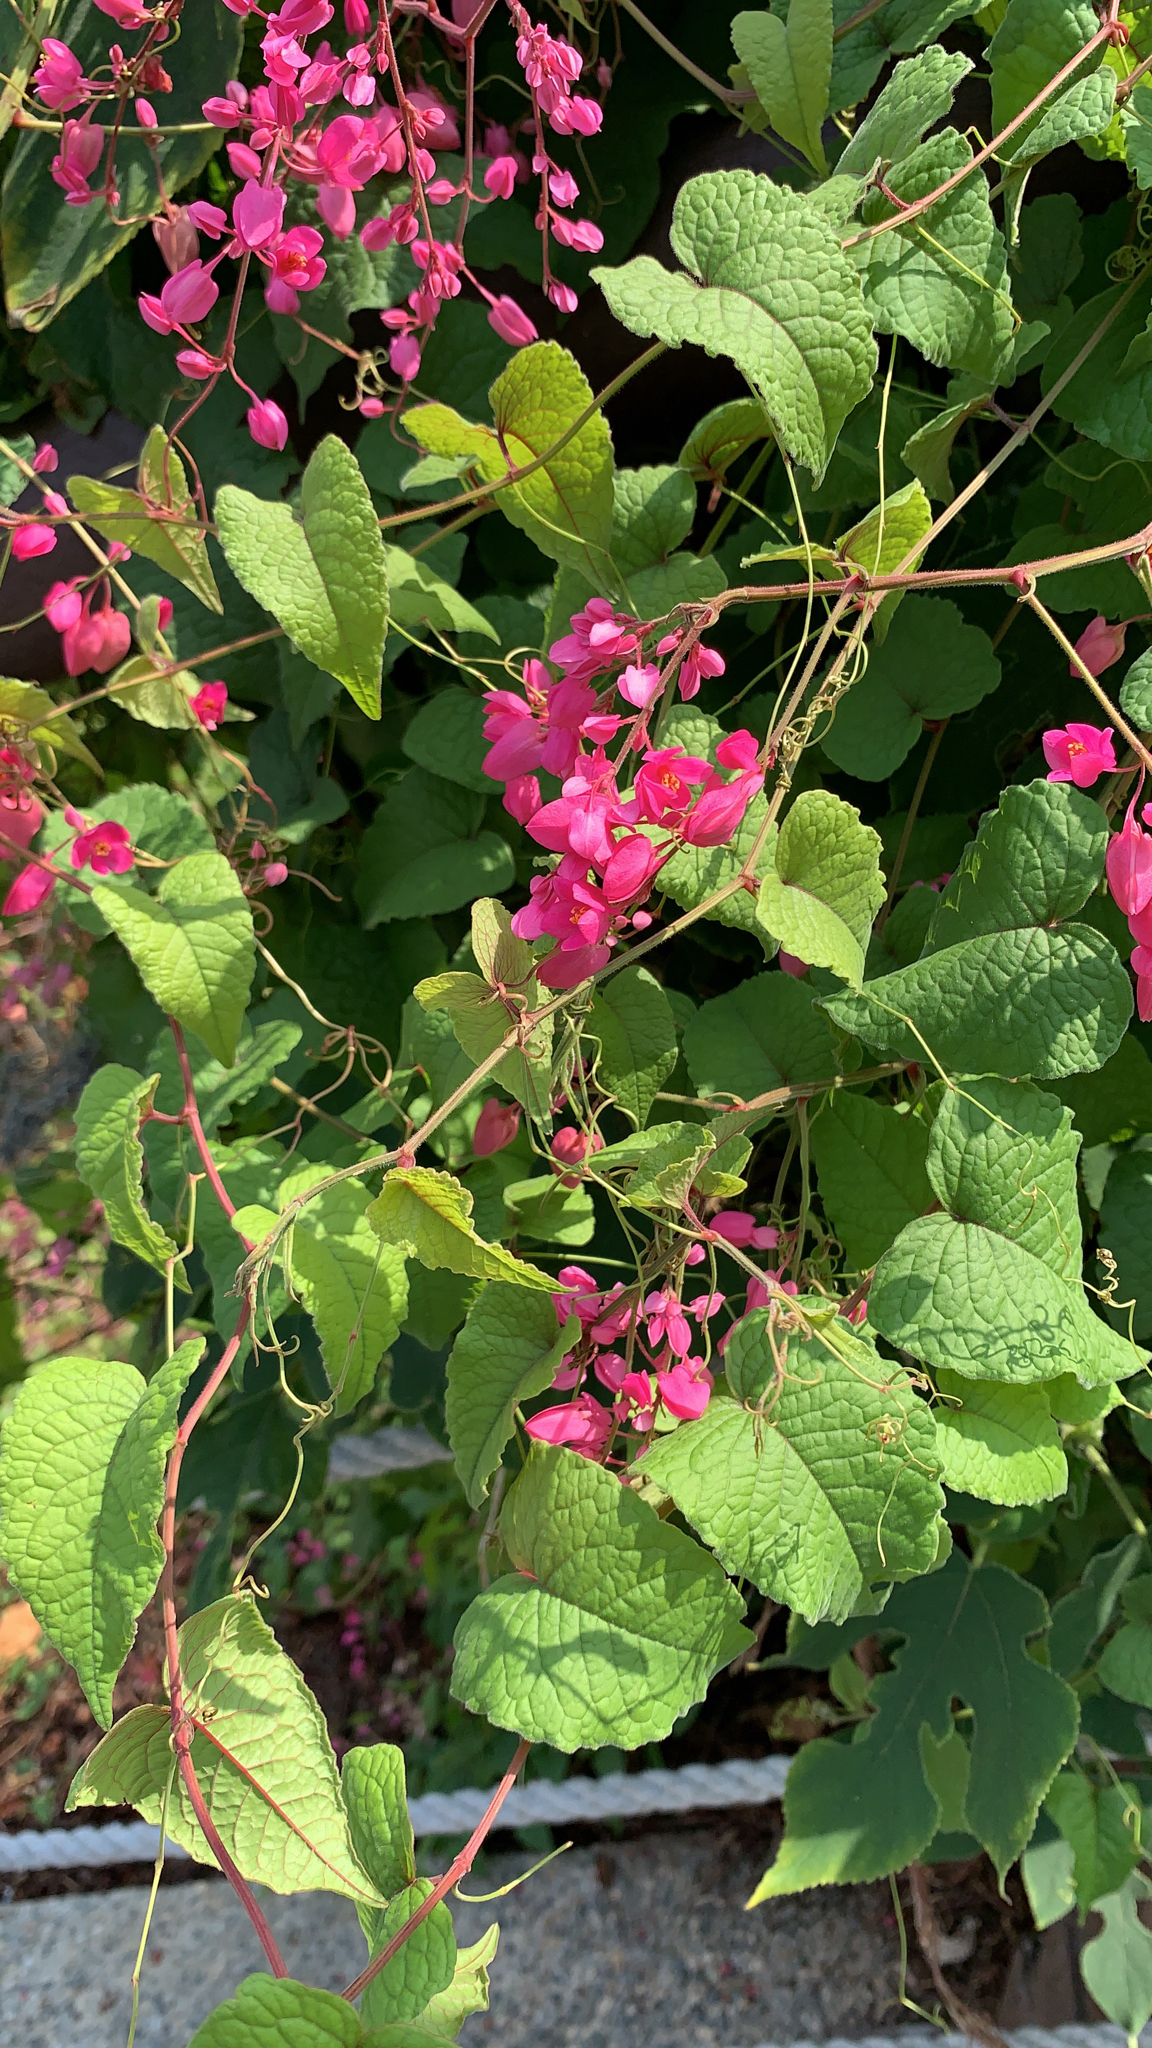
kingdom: Plantae
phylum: Tracheophyta
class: Magnoliopsida
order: Caryophyllales
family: Polygonaceae
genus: Antigonon
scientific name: Antigonon leptopus
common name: Coral vine
